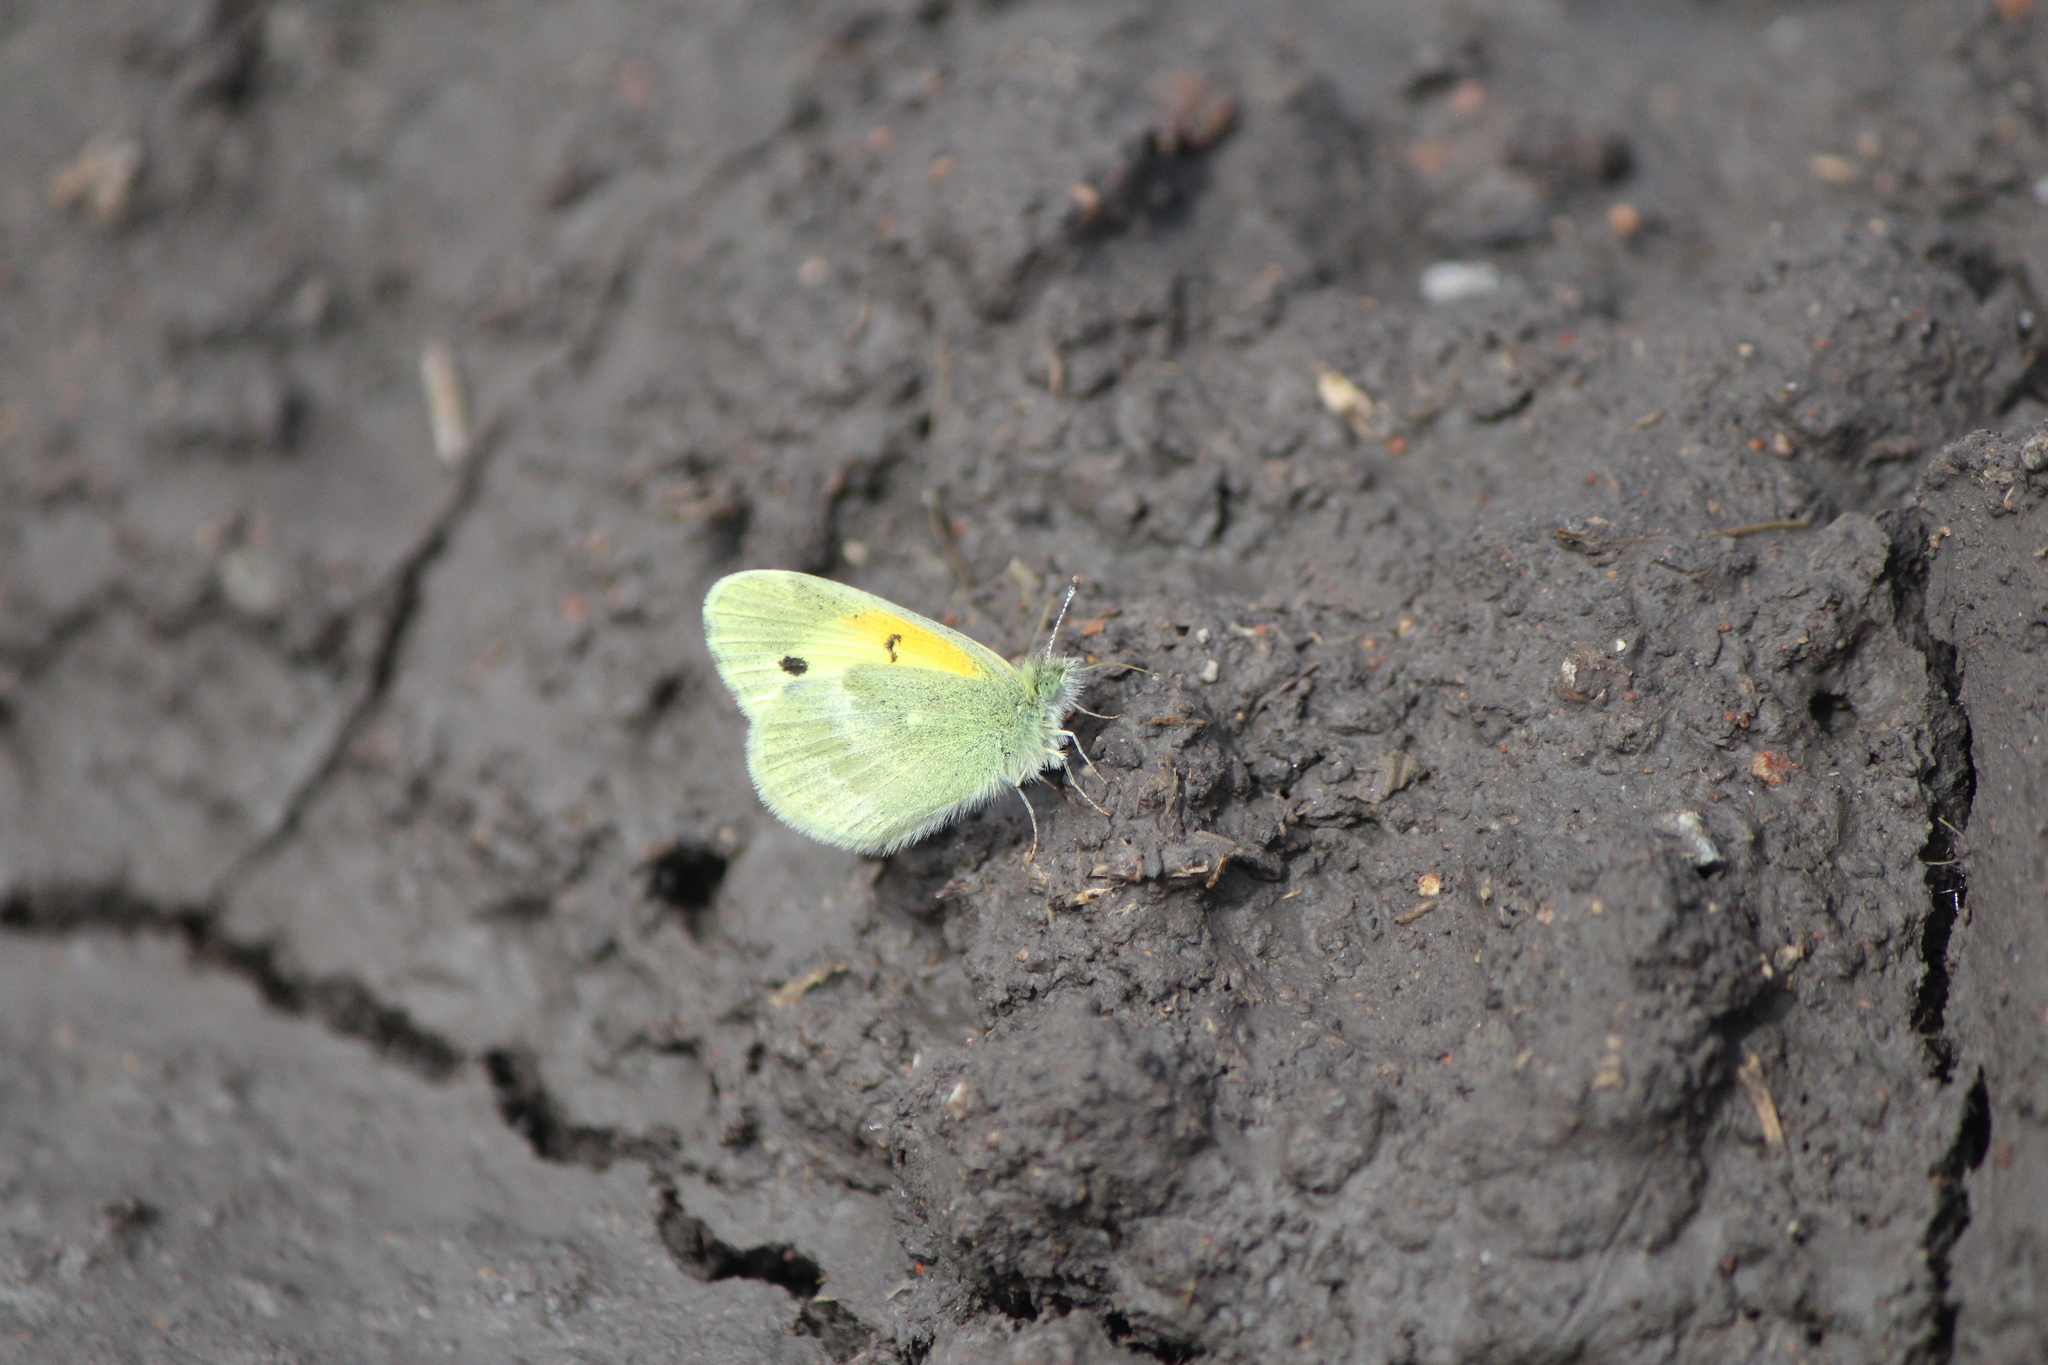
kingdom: Animalia
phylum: Arthropoda
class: Insecta
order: Lepidoptera
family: Pieridae
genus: Nathalis
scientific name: Nathalis iole
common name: Dainty sulphur
